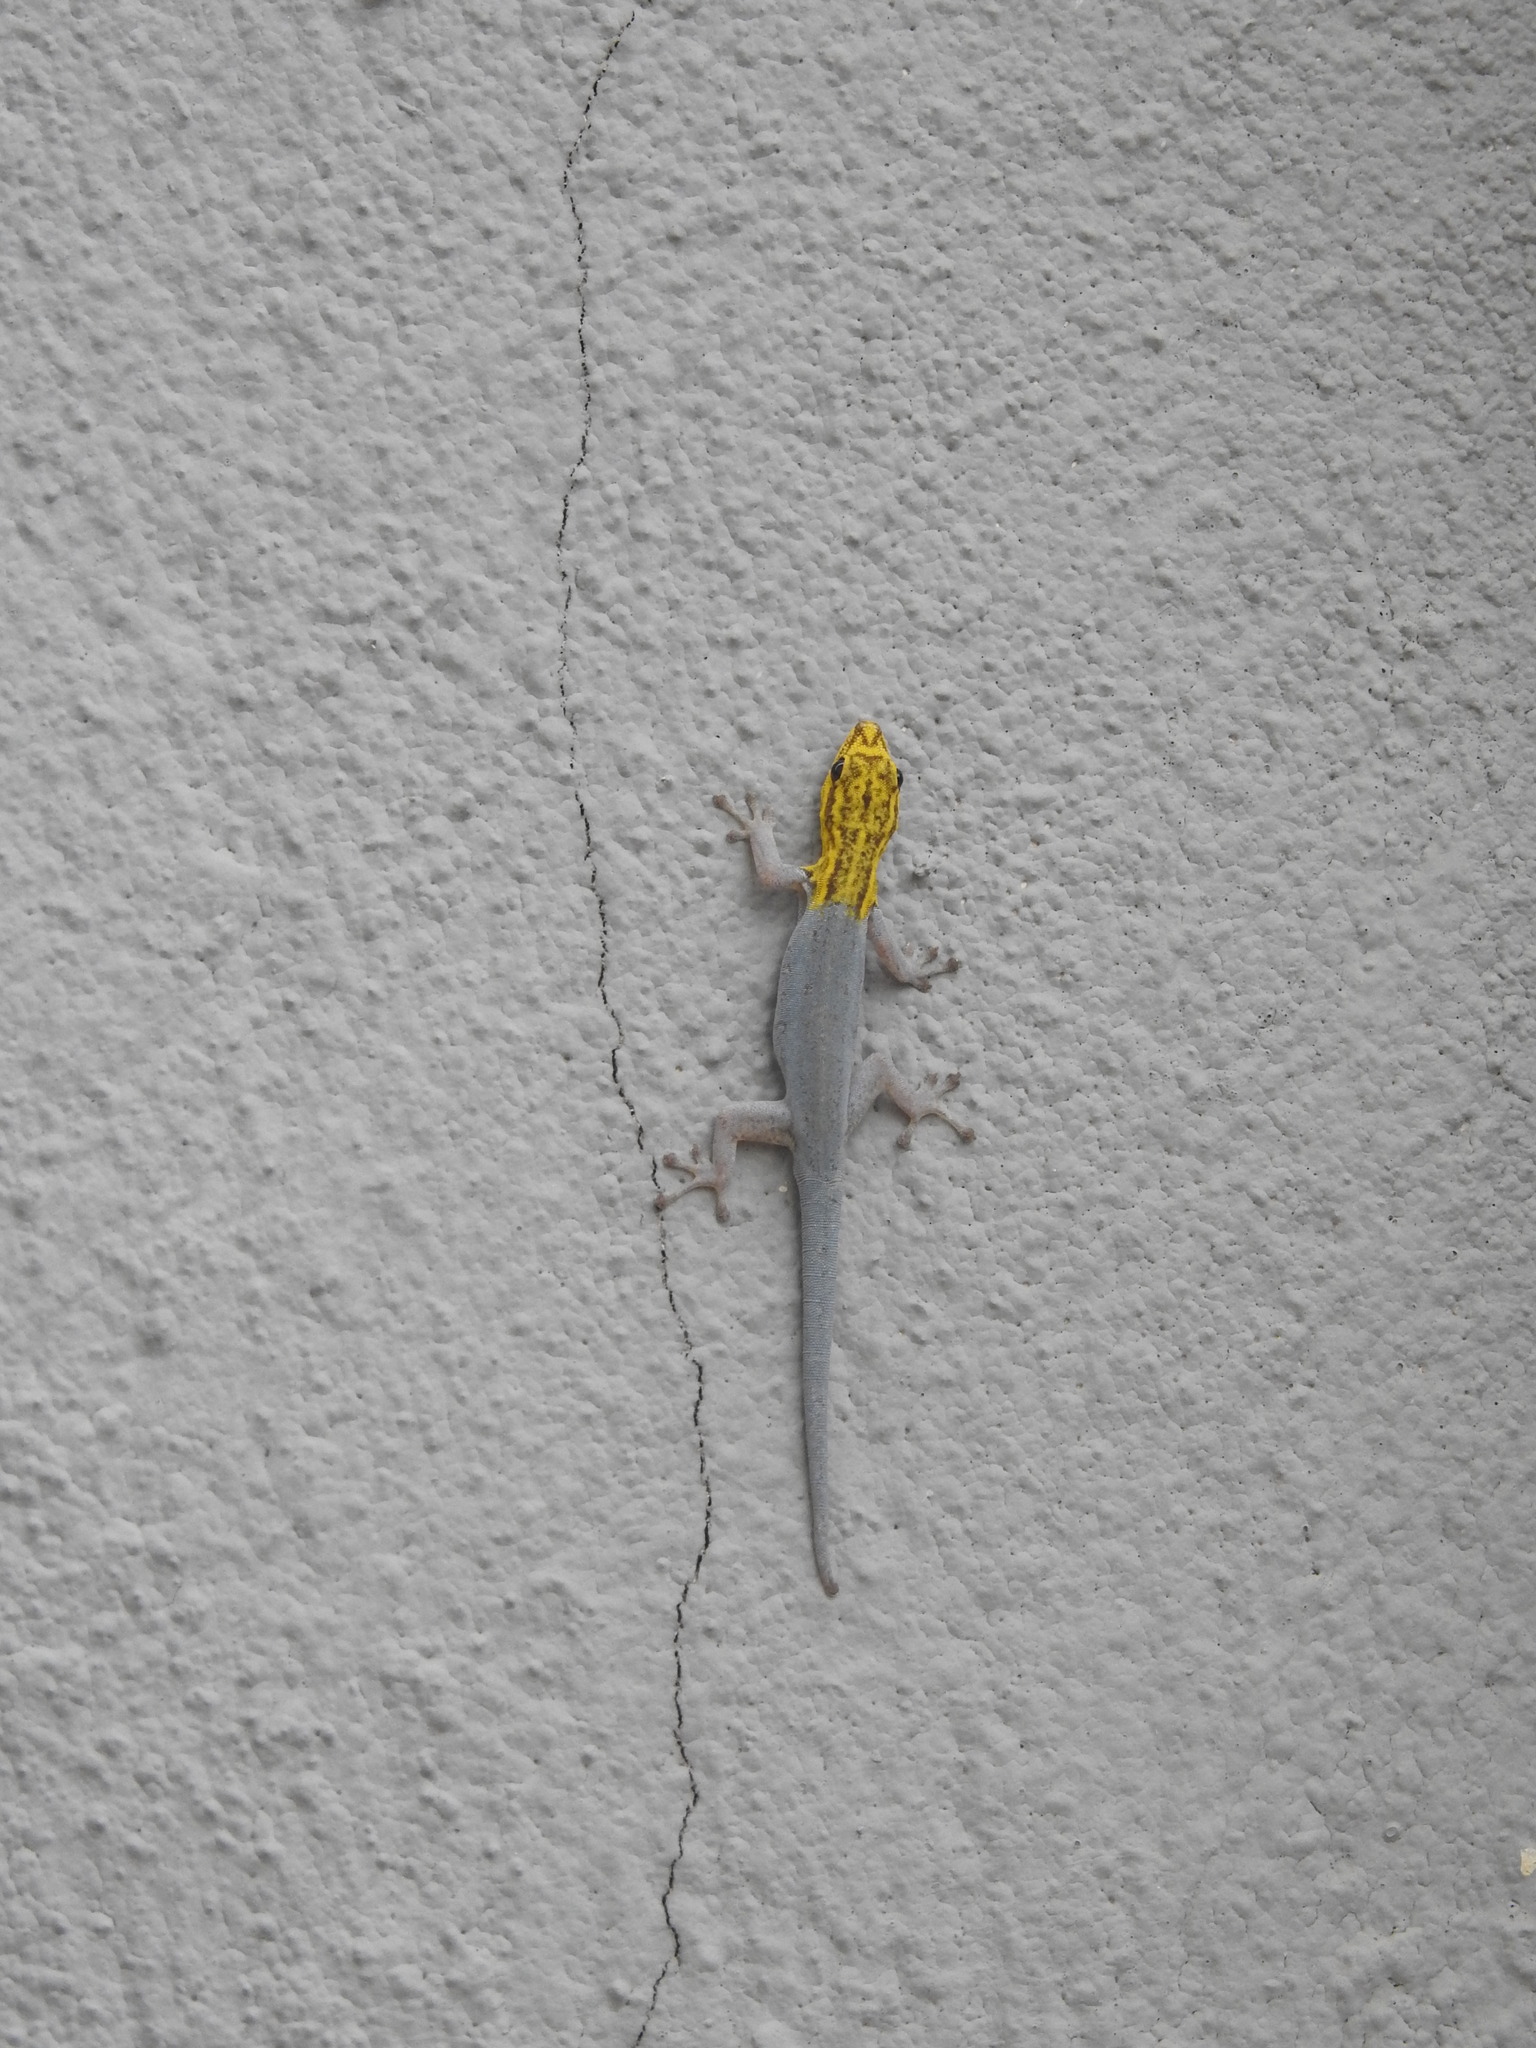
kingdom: Animalia
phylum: Chordata
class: Squamata
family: Gekkonidae
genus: Lygodactylus
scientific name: Lygodactylus picturatus
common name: Painted dwarf gecko
